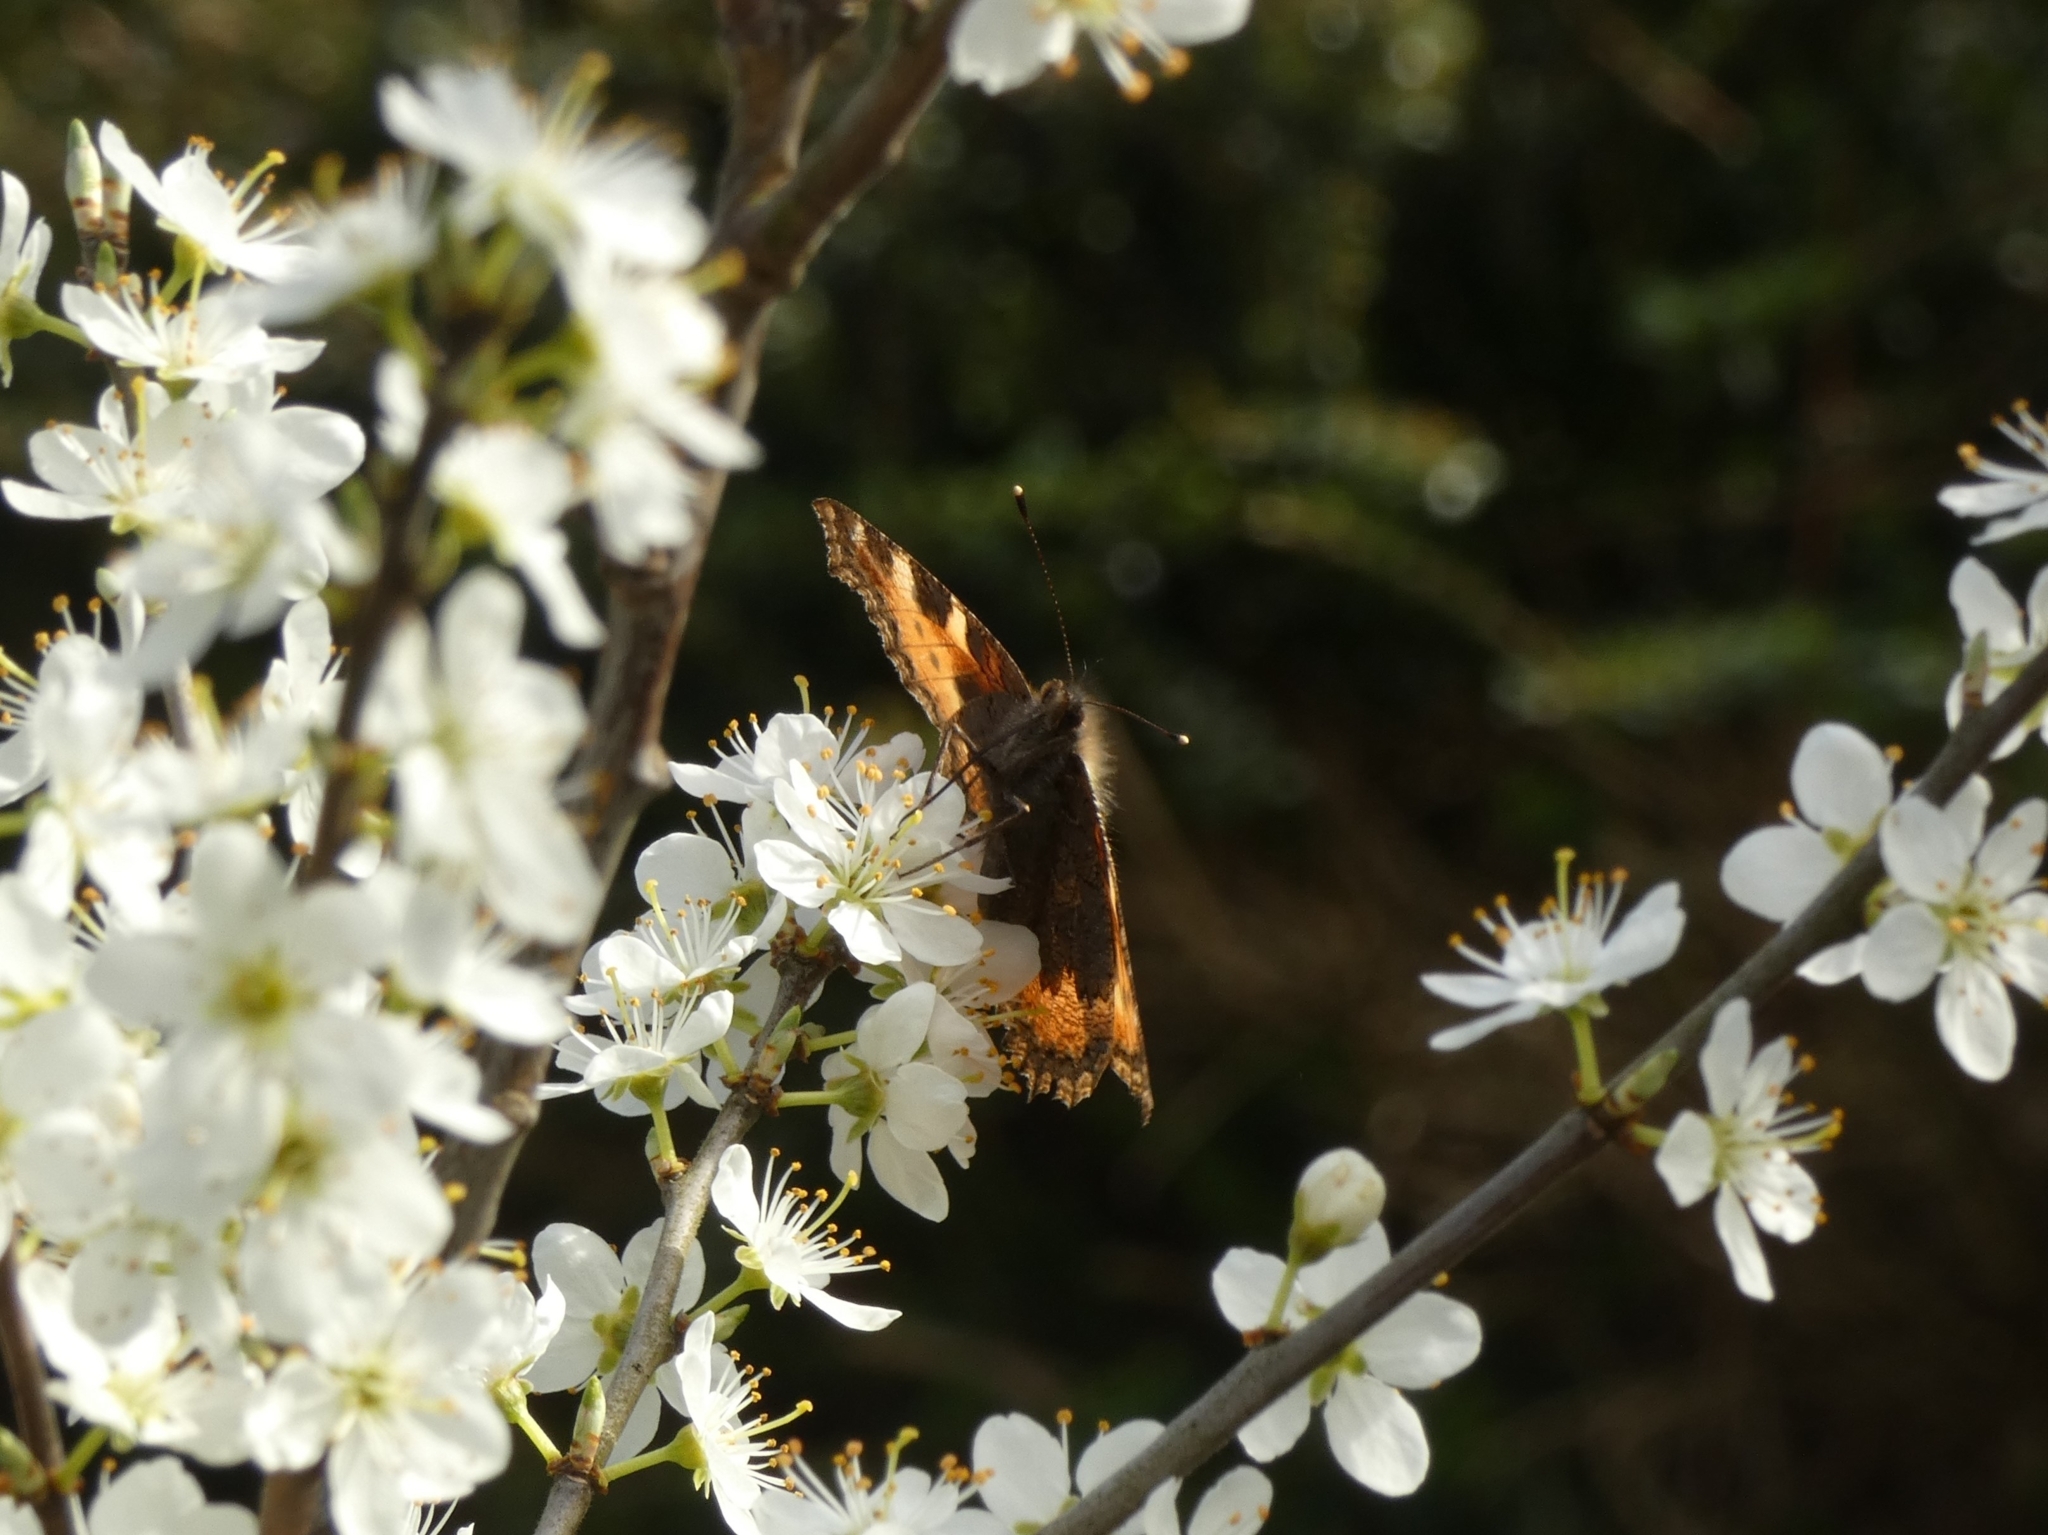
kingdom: Animalia
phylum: Arthropoda
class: Insecta
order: Lepidoptera
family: Nymphalidae
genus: Aglais
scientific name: Aglais urticae
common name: Small tortoiseshell
